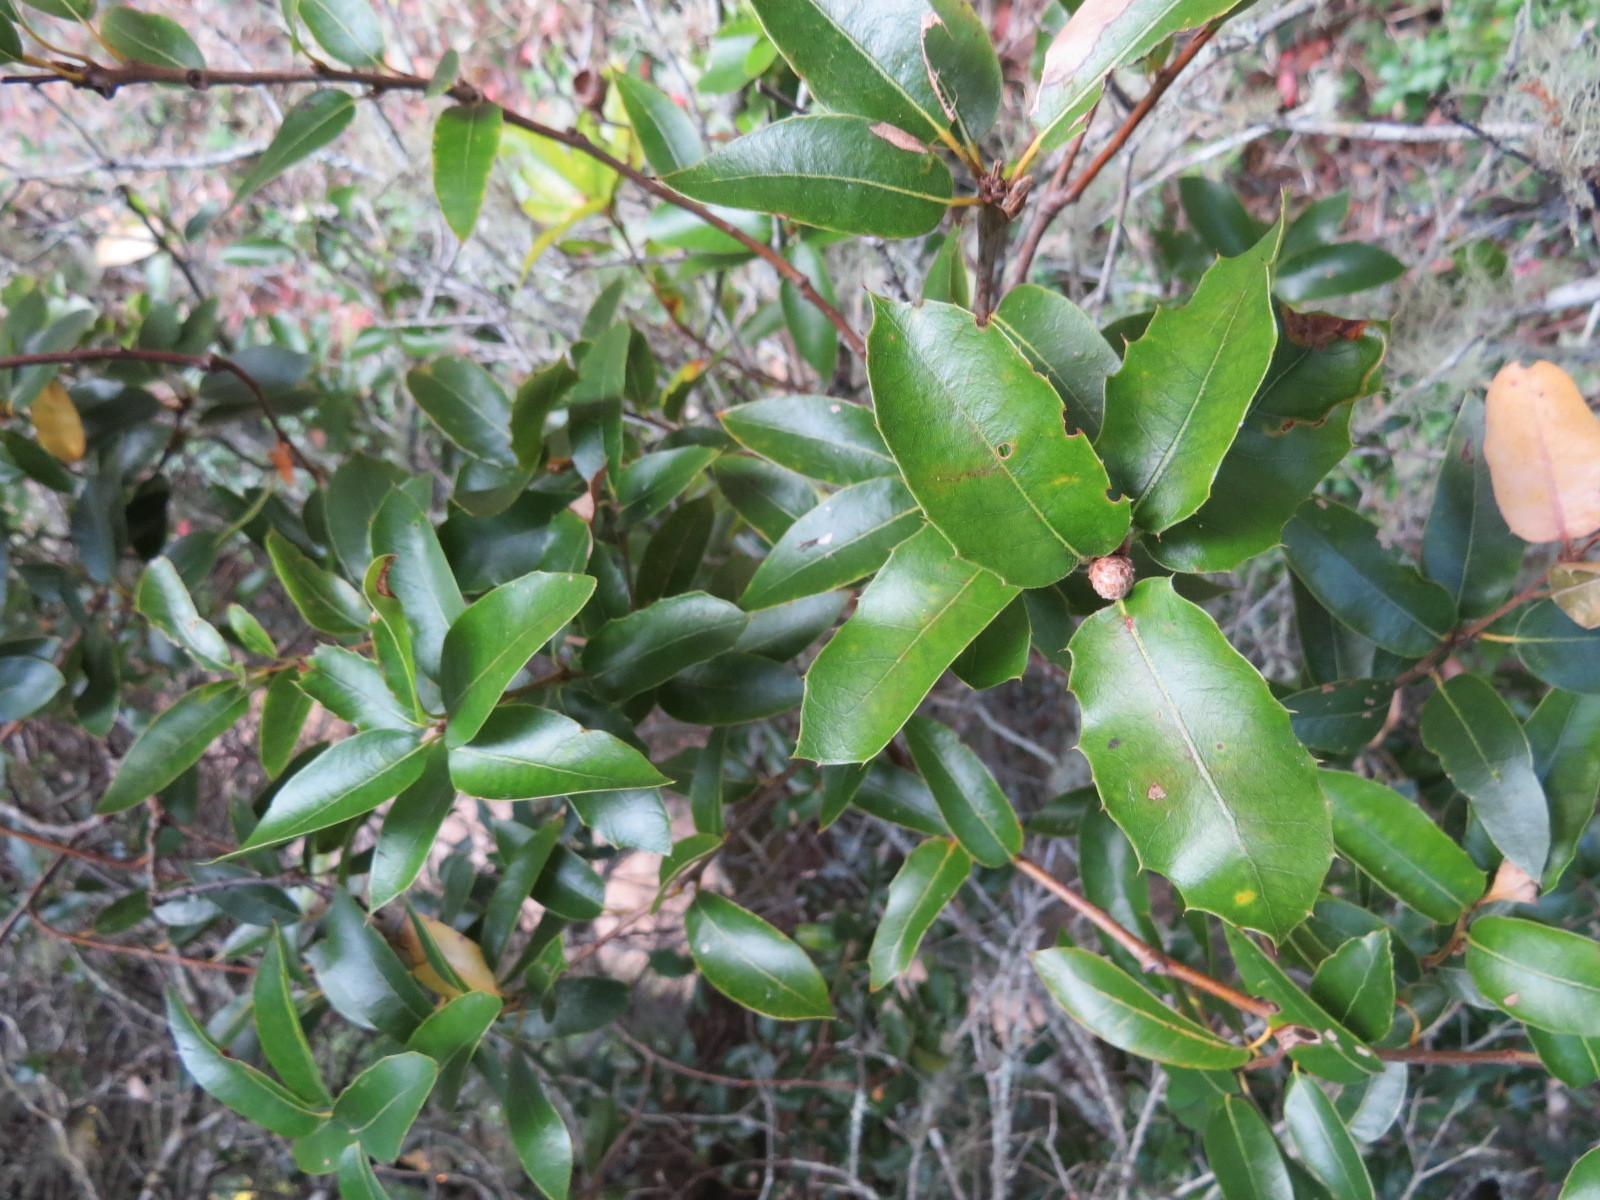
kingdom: Animalia
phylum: Arthropoda
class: Insecta
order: Hymenoptera
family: Cynipidae
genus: Amphibolips
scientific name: Amphibolips quercuspomiformis
